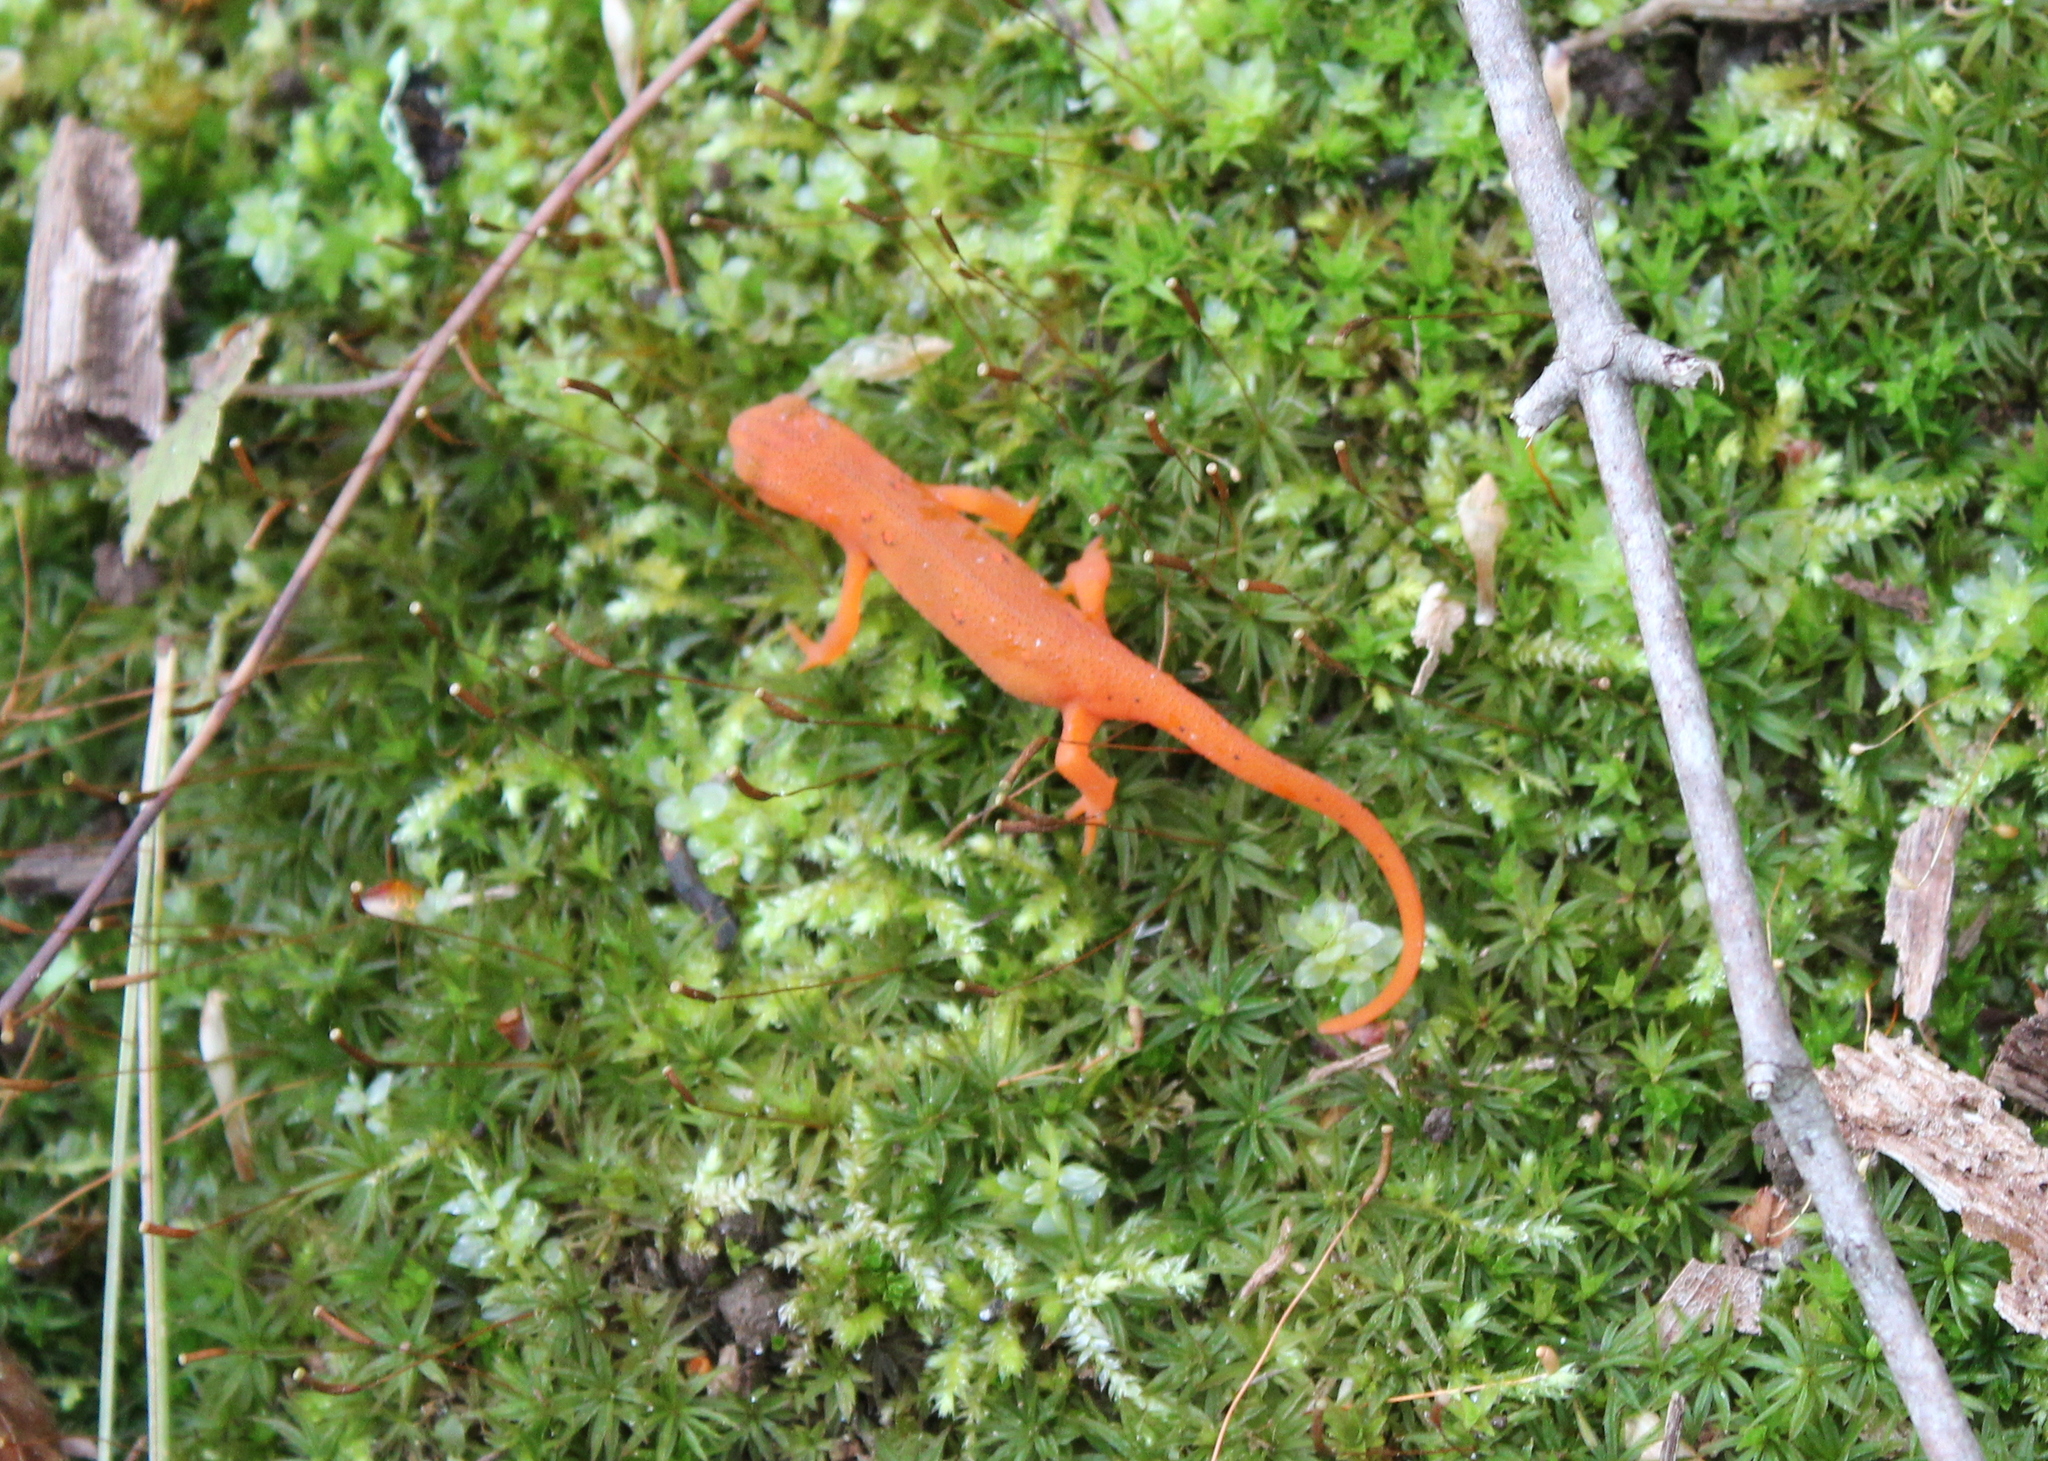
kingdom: Animalia
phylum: Chordata
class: Amphibia
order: Caudata
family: Salamandridae
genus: Notophthalmus
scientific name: Notophthalmus viridescens
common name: Eastern newt
